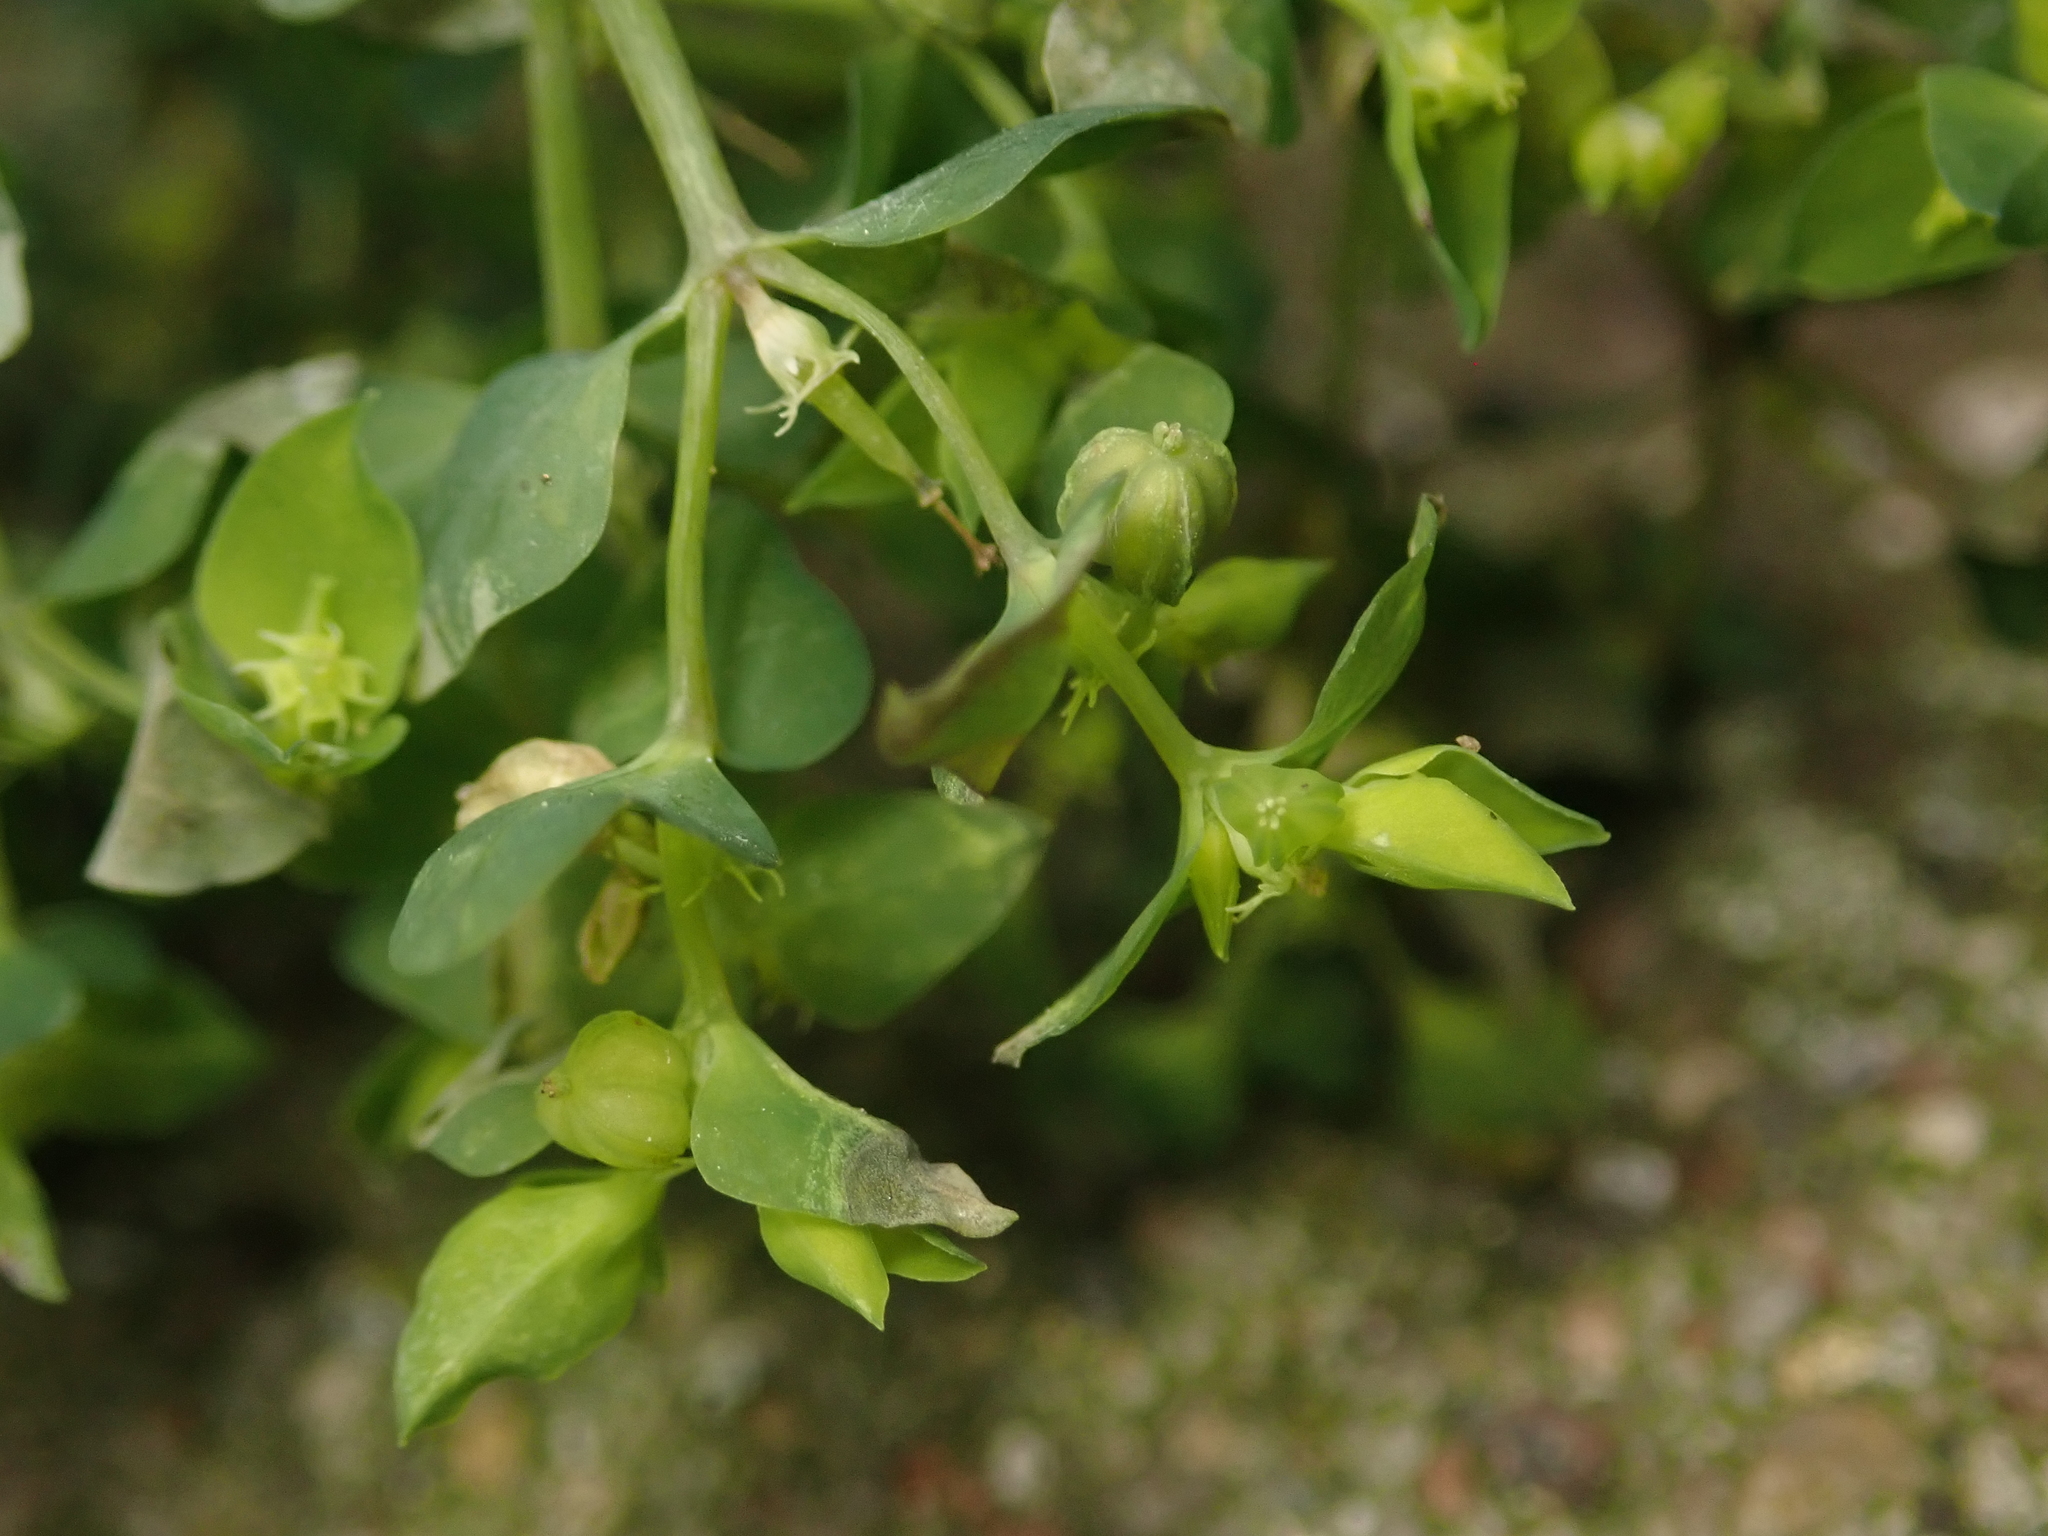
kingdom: Plantae
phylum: Tracheophyta
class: Magnoliopsida
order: Malpighiales
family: Euphorbiaceae
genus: Euphorbia
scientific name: Euphorbia peplus
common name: Petty spurge
